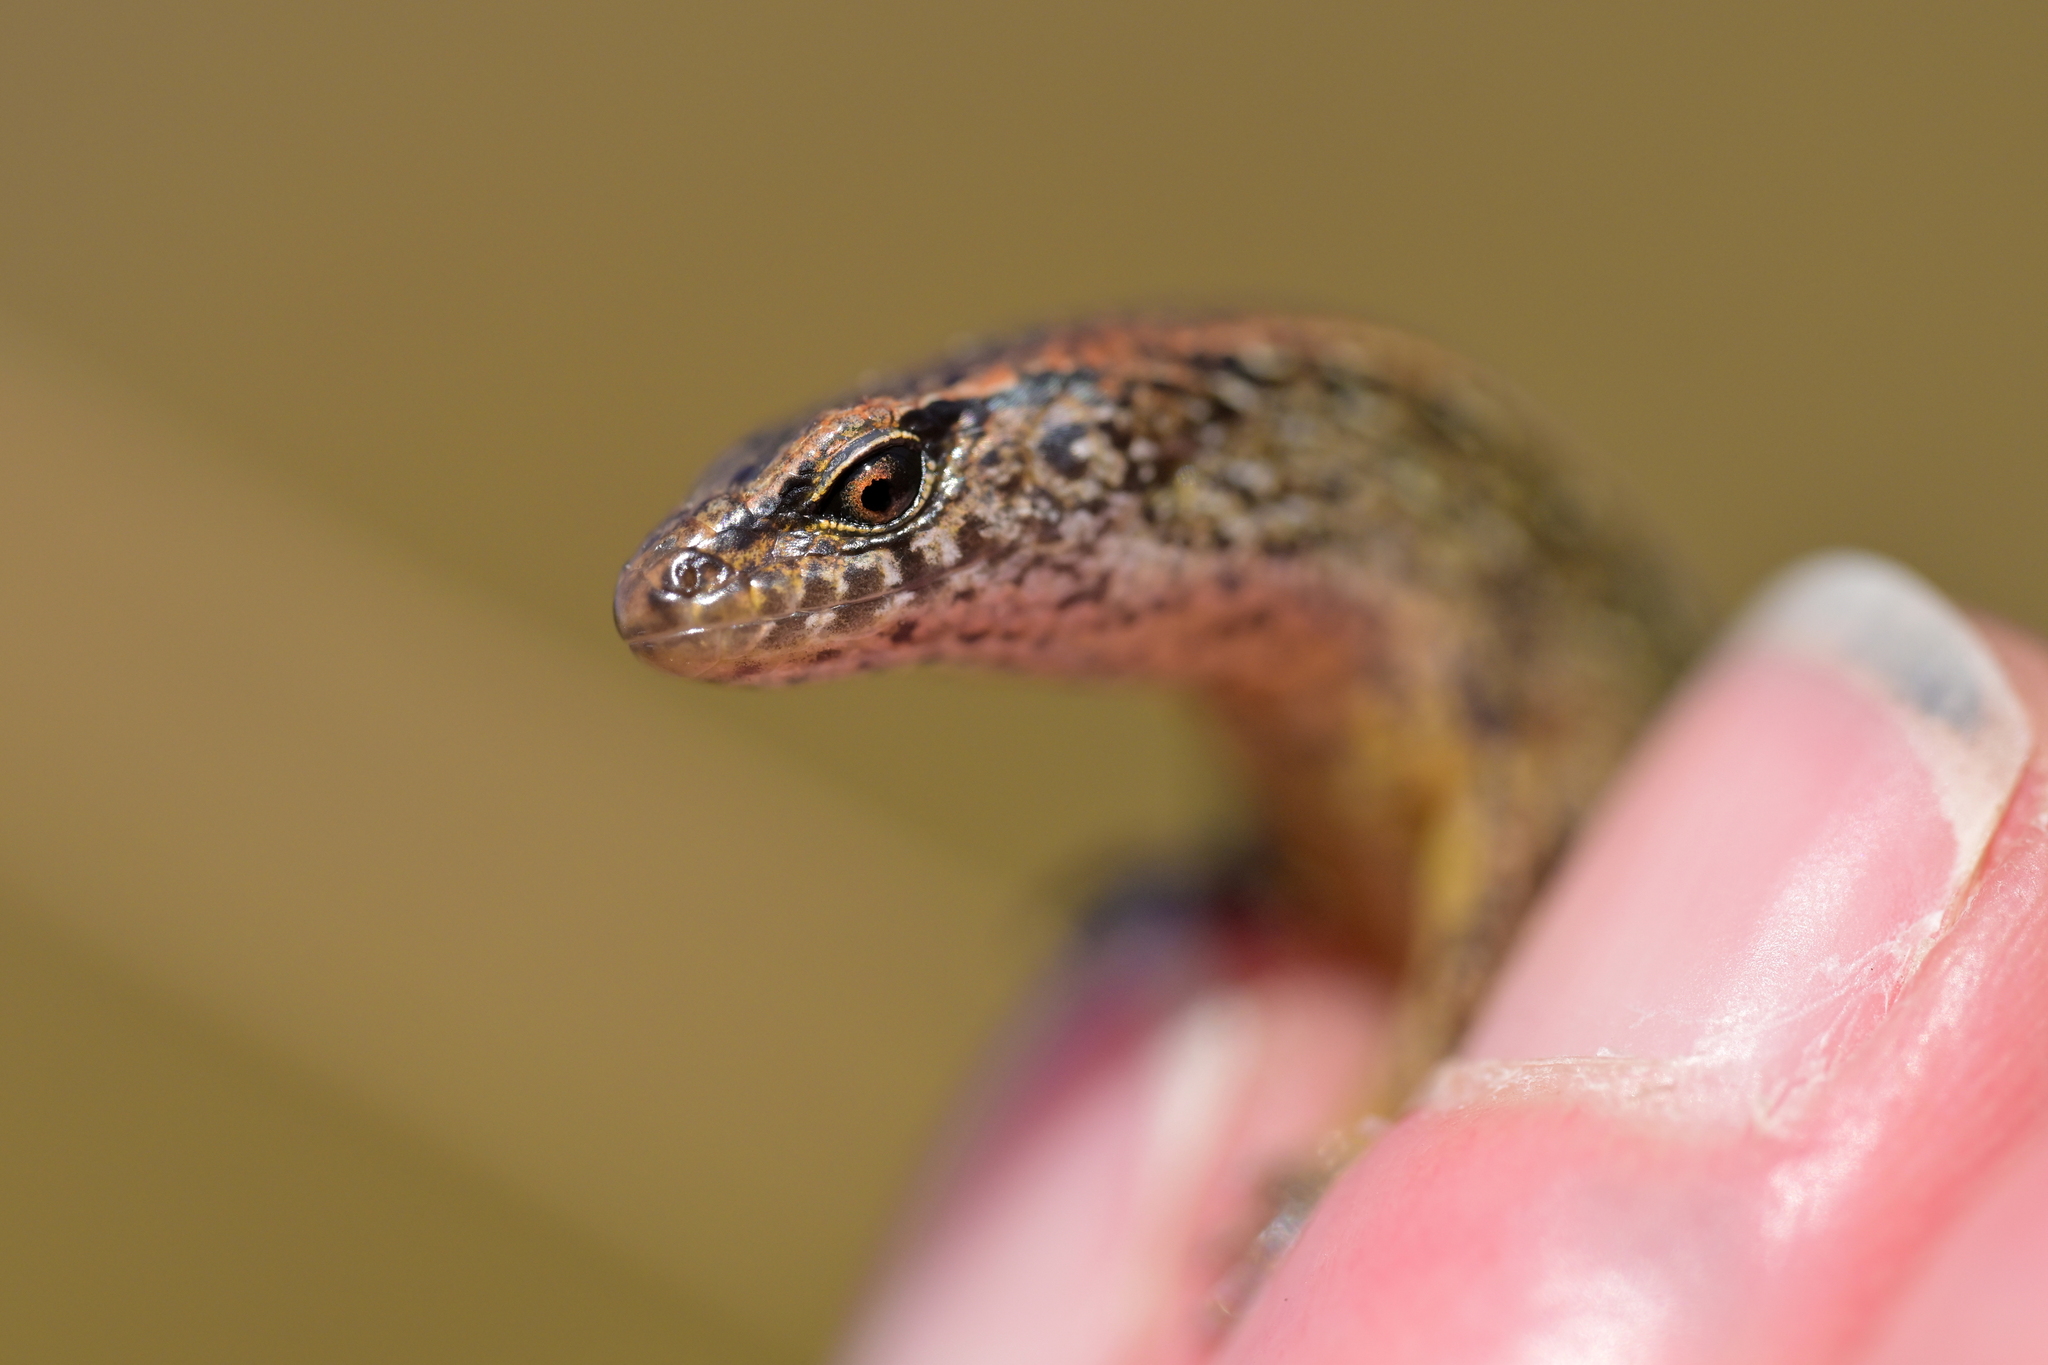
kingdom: Animalia
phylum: Chordata
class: Squamata
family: Scincidae
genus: Oligosoma
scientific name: Oligosoma aeneum
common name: Copper skink
